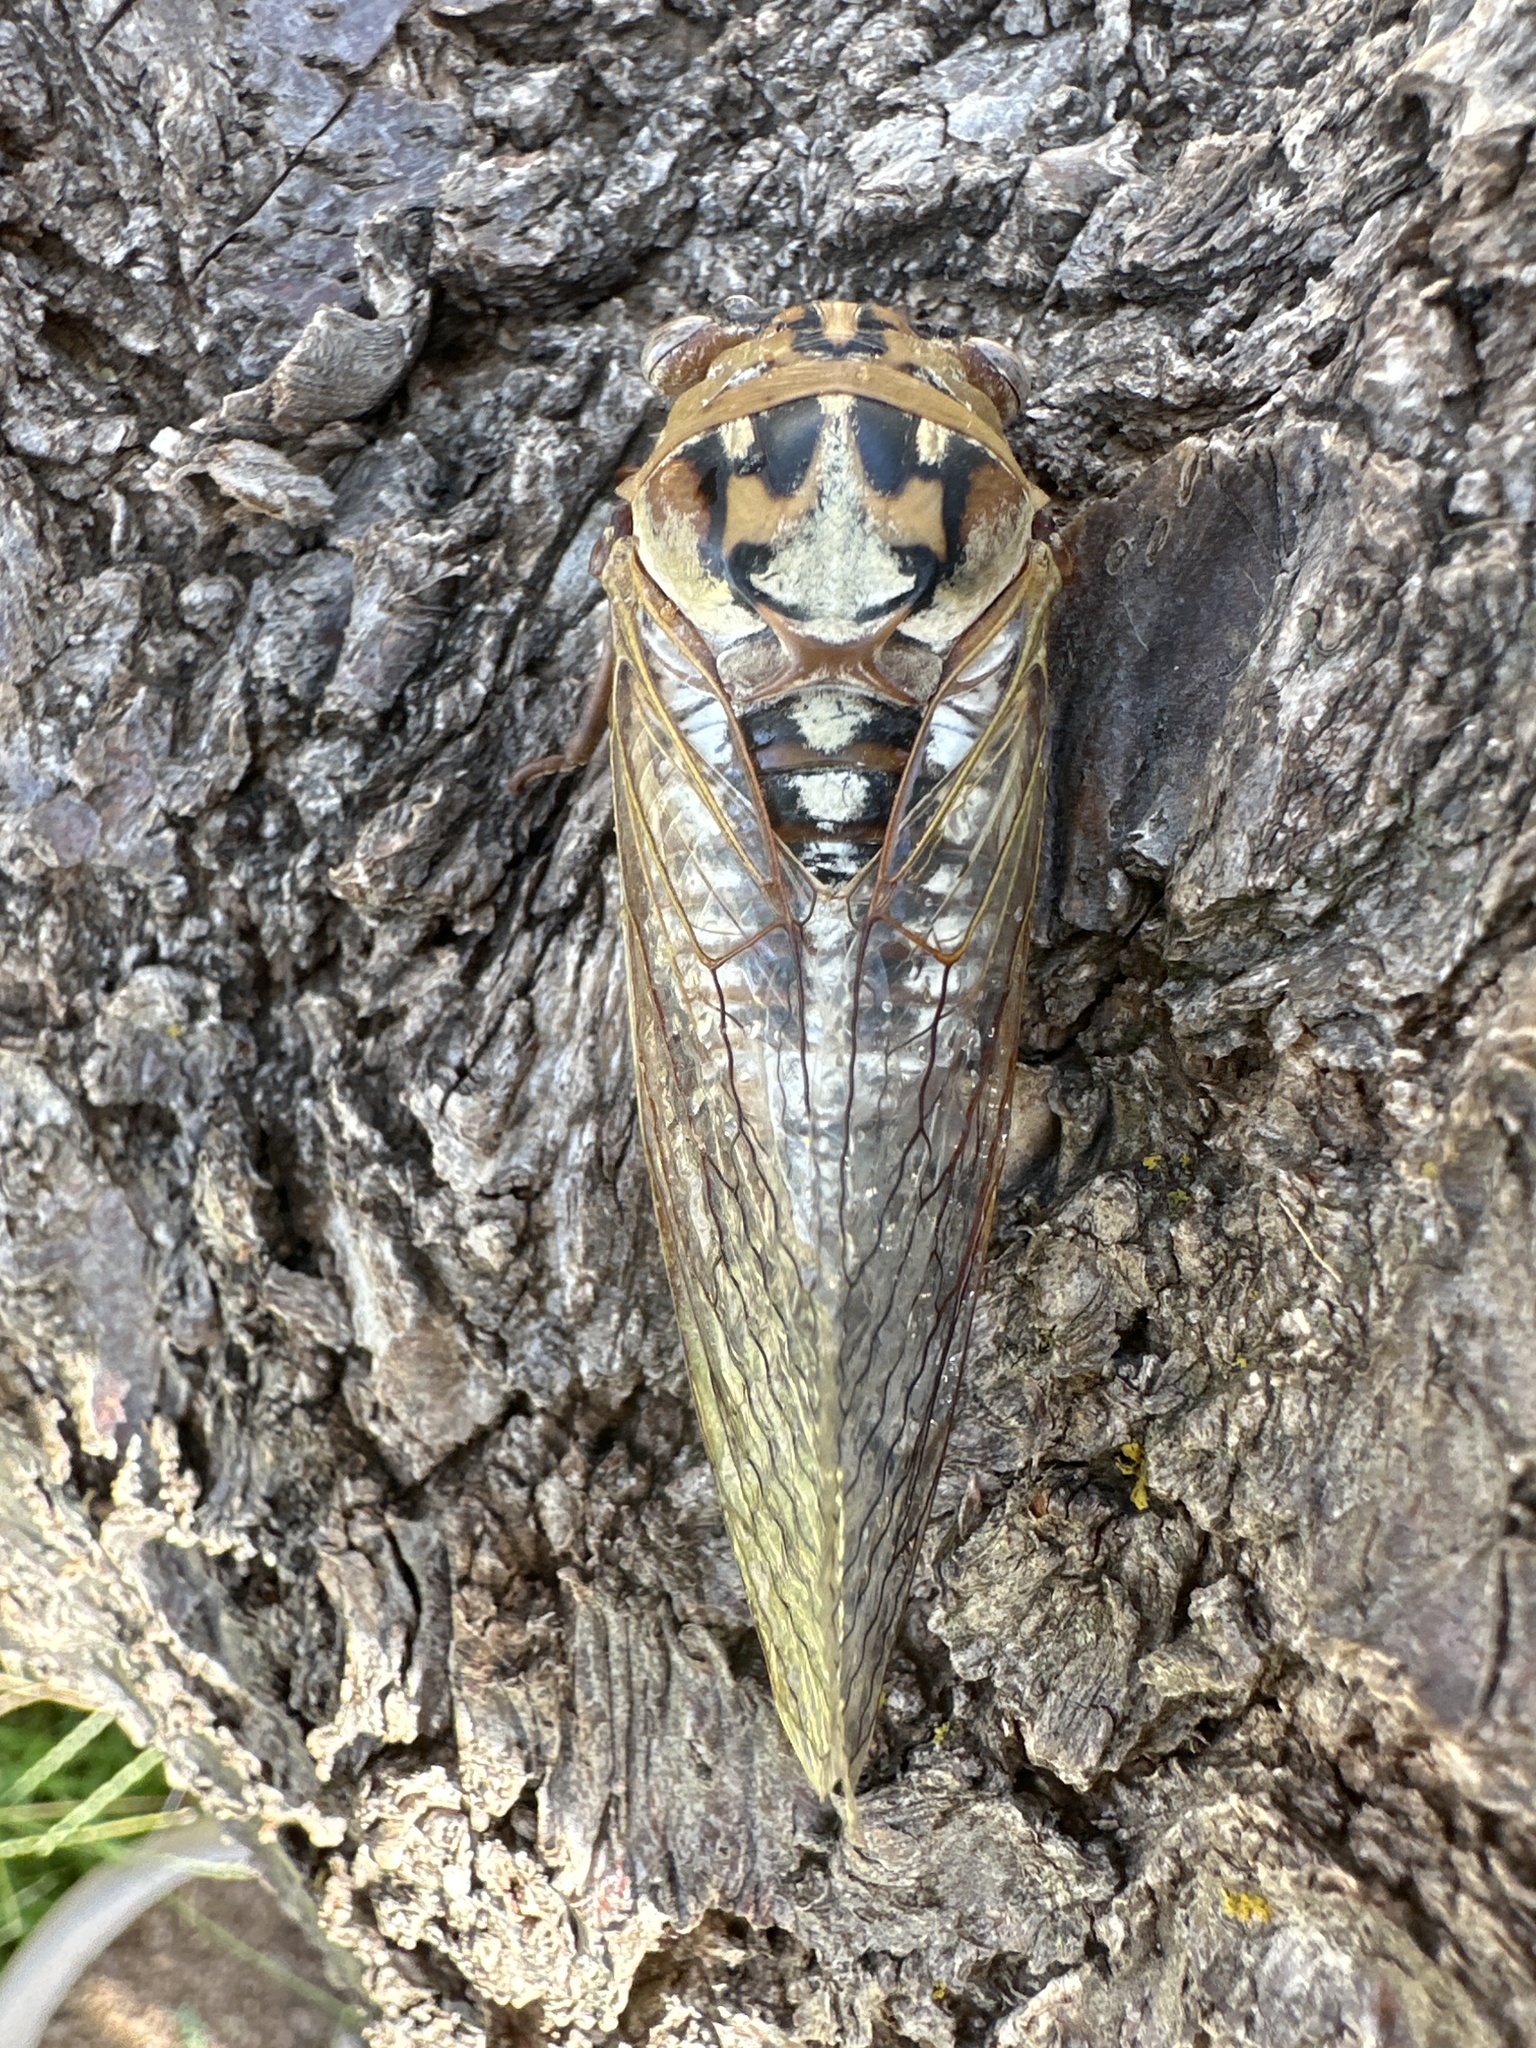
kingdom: Animalia
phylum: Arthropoda
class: Insecta
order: Hemiptera
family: Cicadidae
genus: Megatibicen
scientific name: Megatibicen dealbatus
